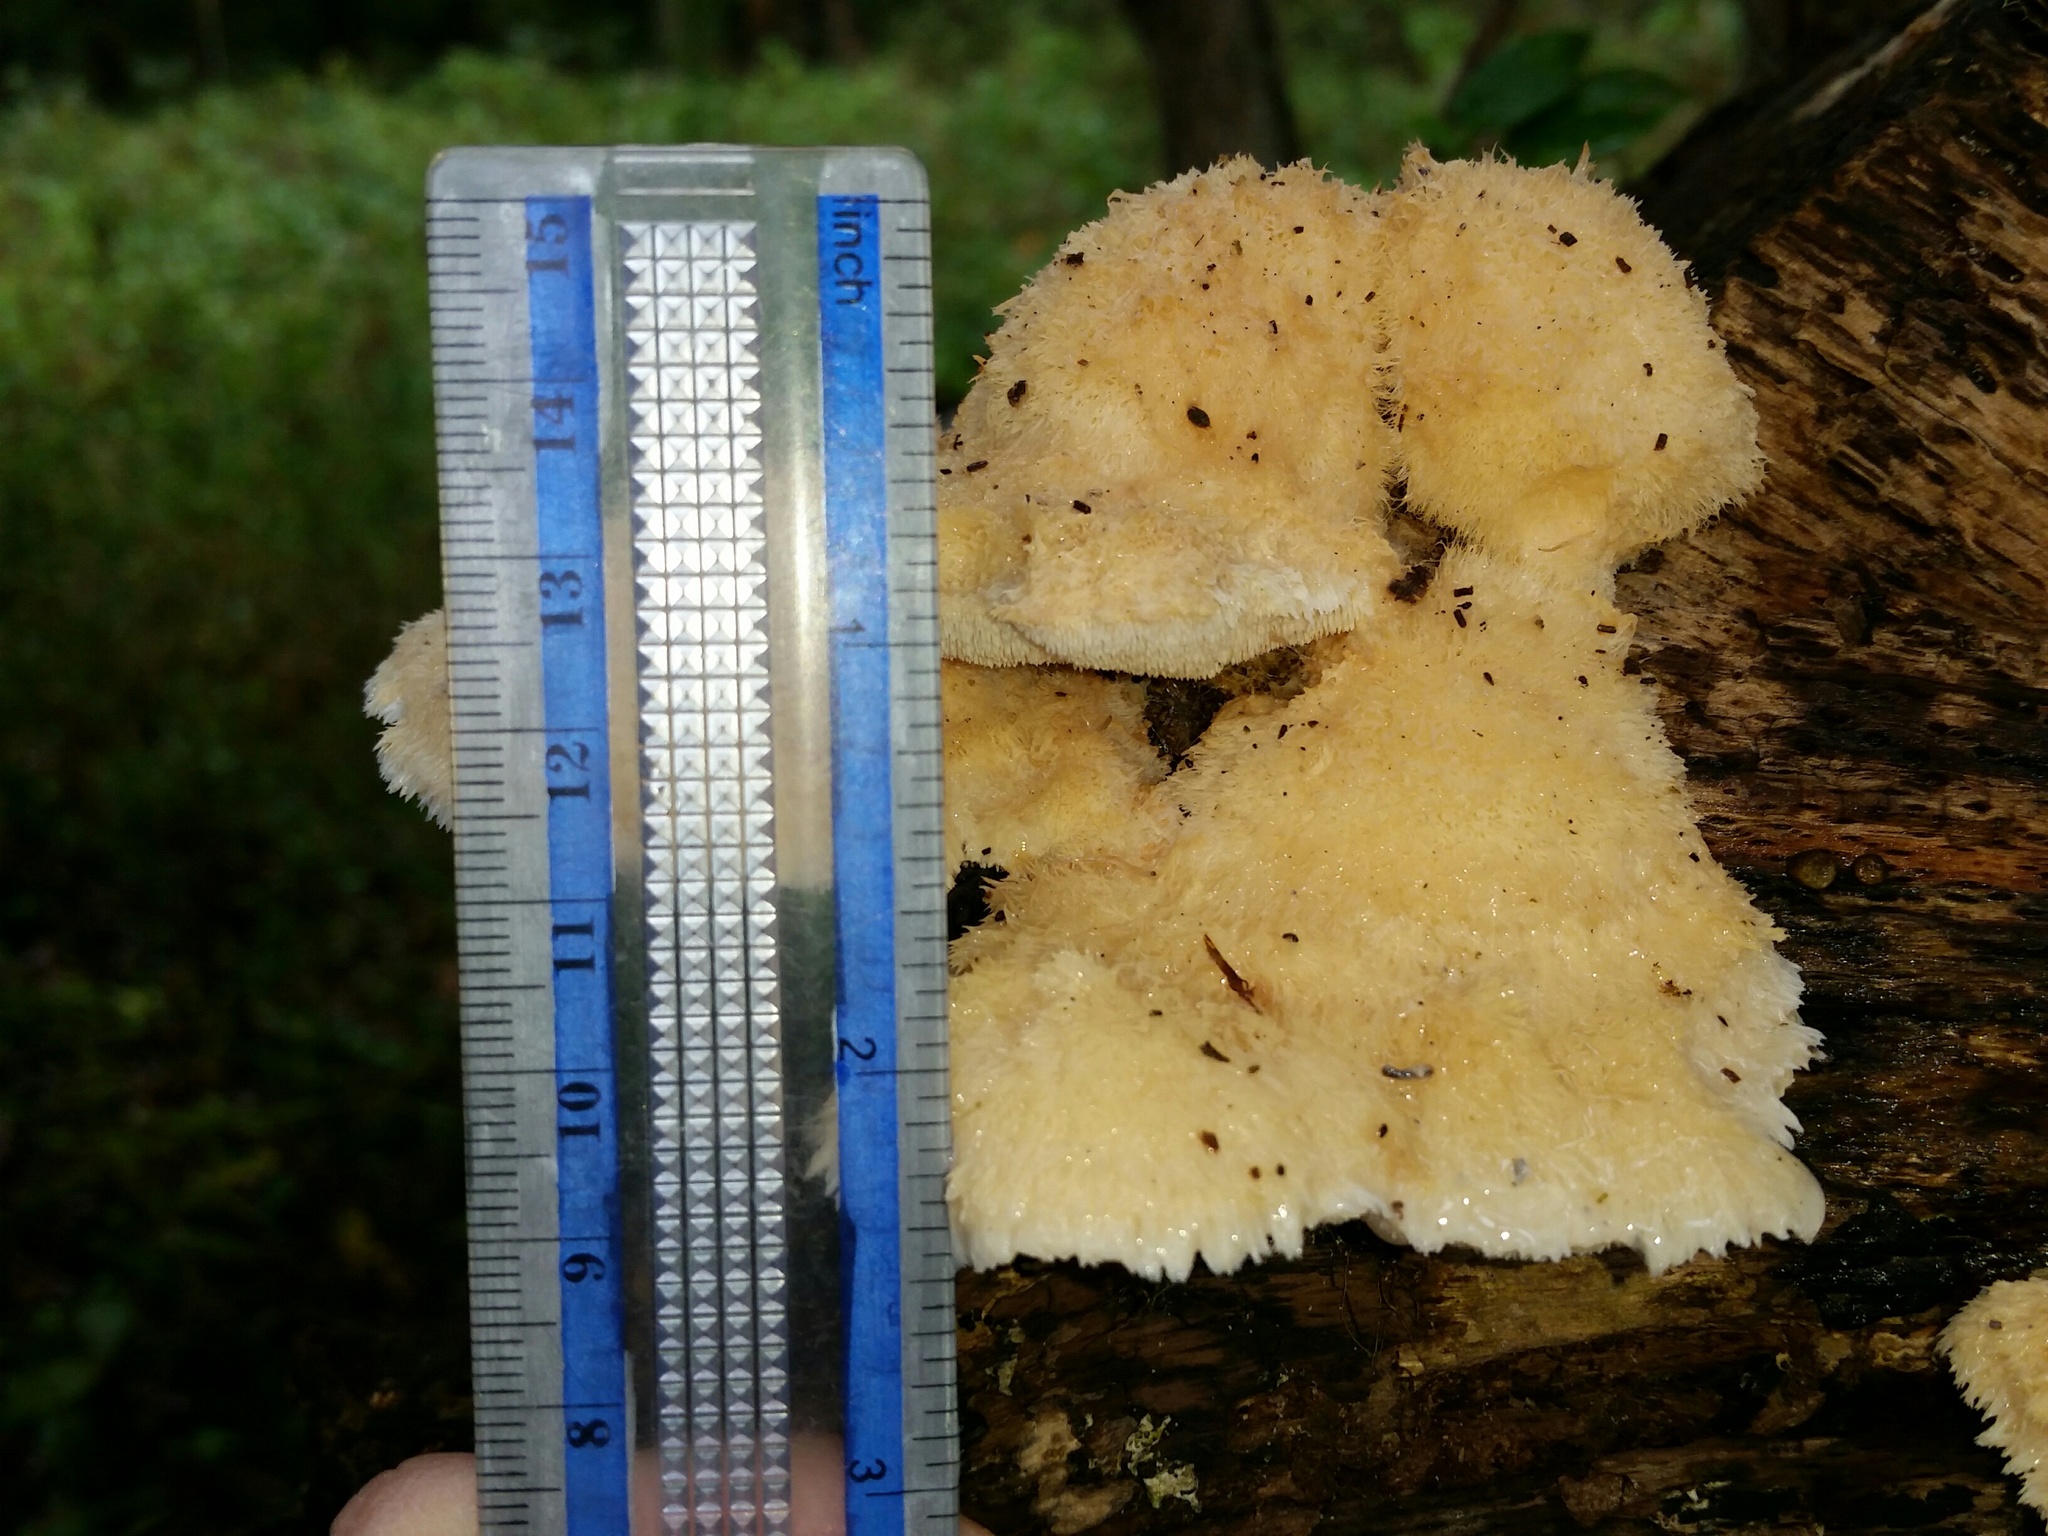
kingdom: Fungi
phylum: Basidiomycota
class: Agaricomycetes
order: Polyporales
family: Meruliaceae
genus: Donkia
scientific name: Donkia pulcherrima
